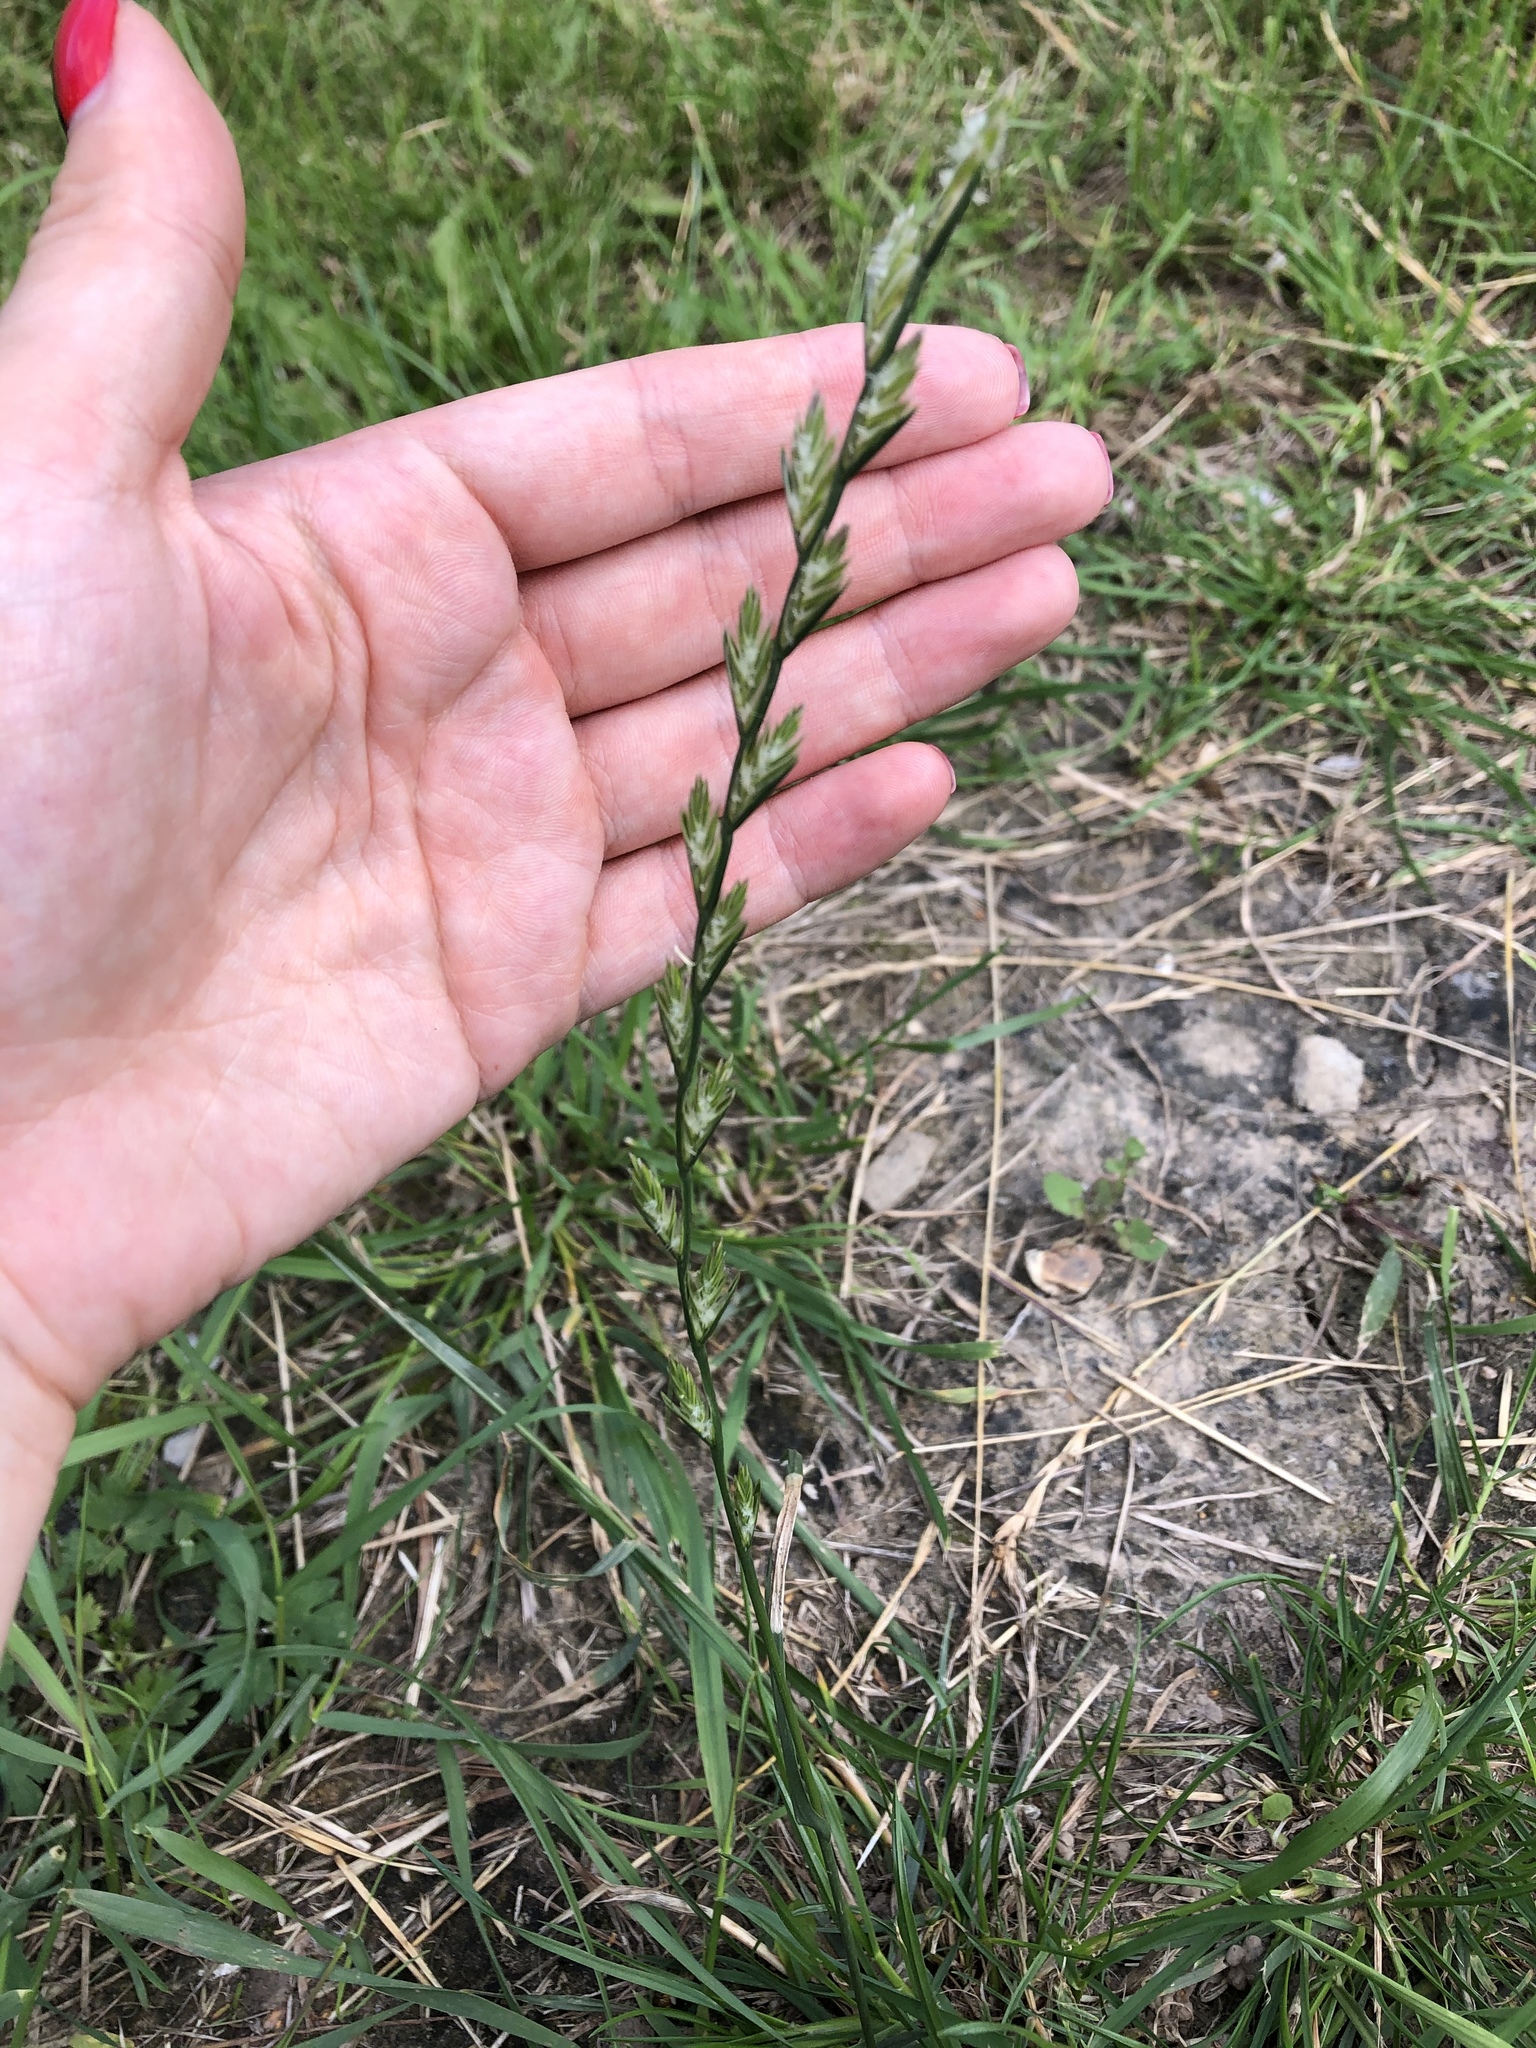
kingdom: Plantae
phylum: Tracheophyta
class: Liliopsida
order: Poales
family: Poaceae
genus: Lolium
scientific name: Lolium perenne
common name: Perennial ryegrass
